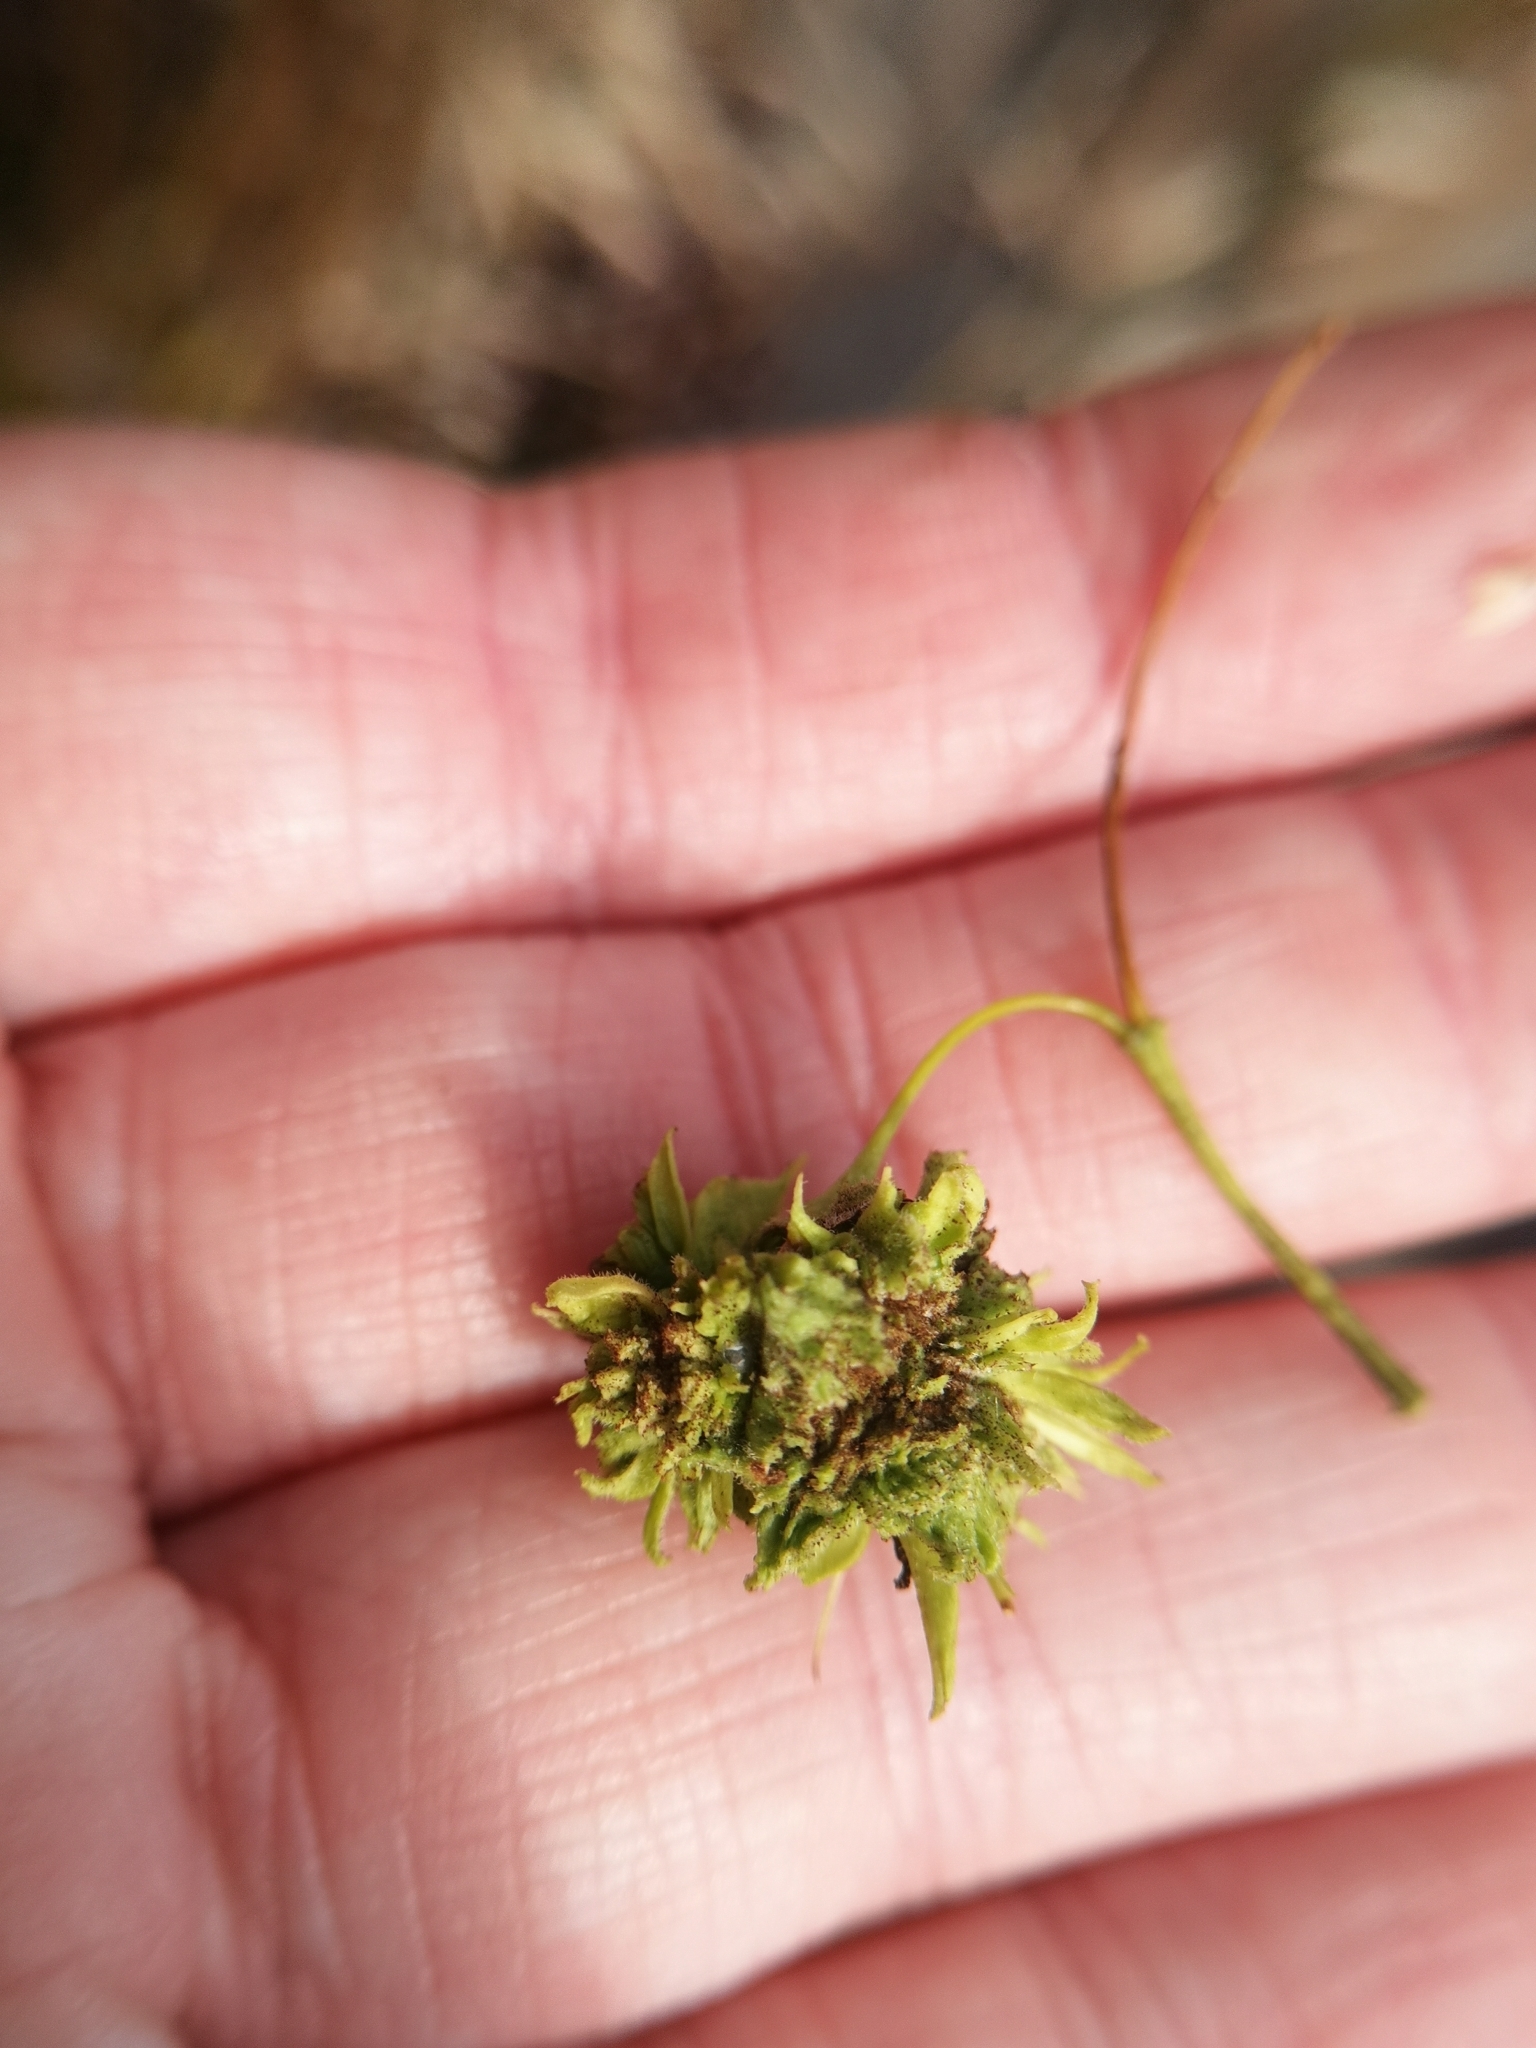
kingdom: Animalia
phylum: Arthropoda
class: Arachnida
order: Trombidiformes
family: Eriophyidae
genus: Aceria
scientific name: Aceria fraxiniflora
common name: Ash flower gall mite
